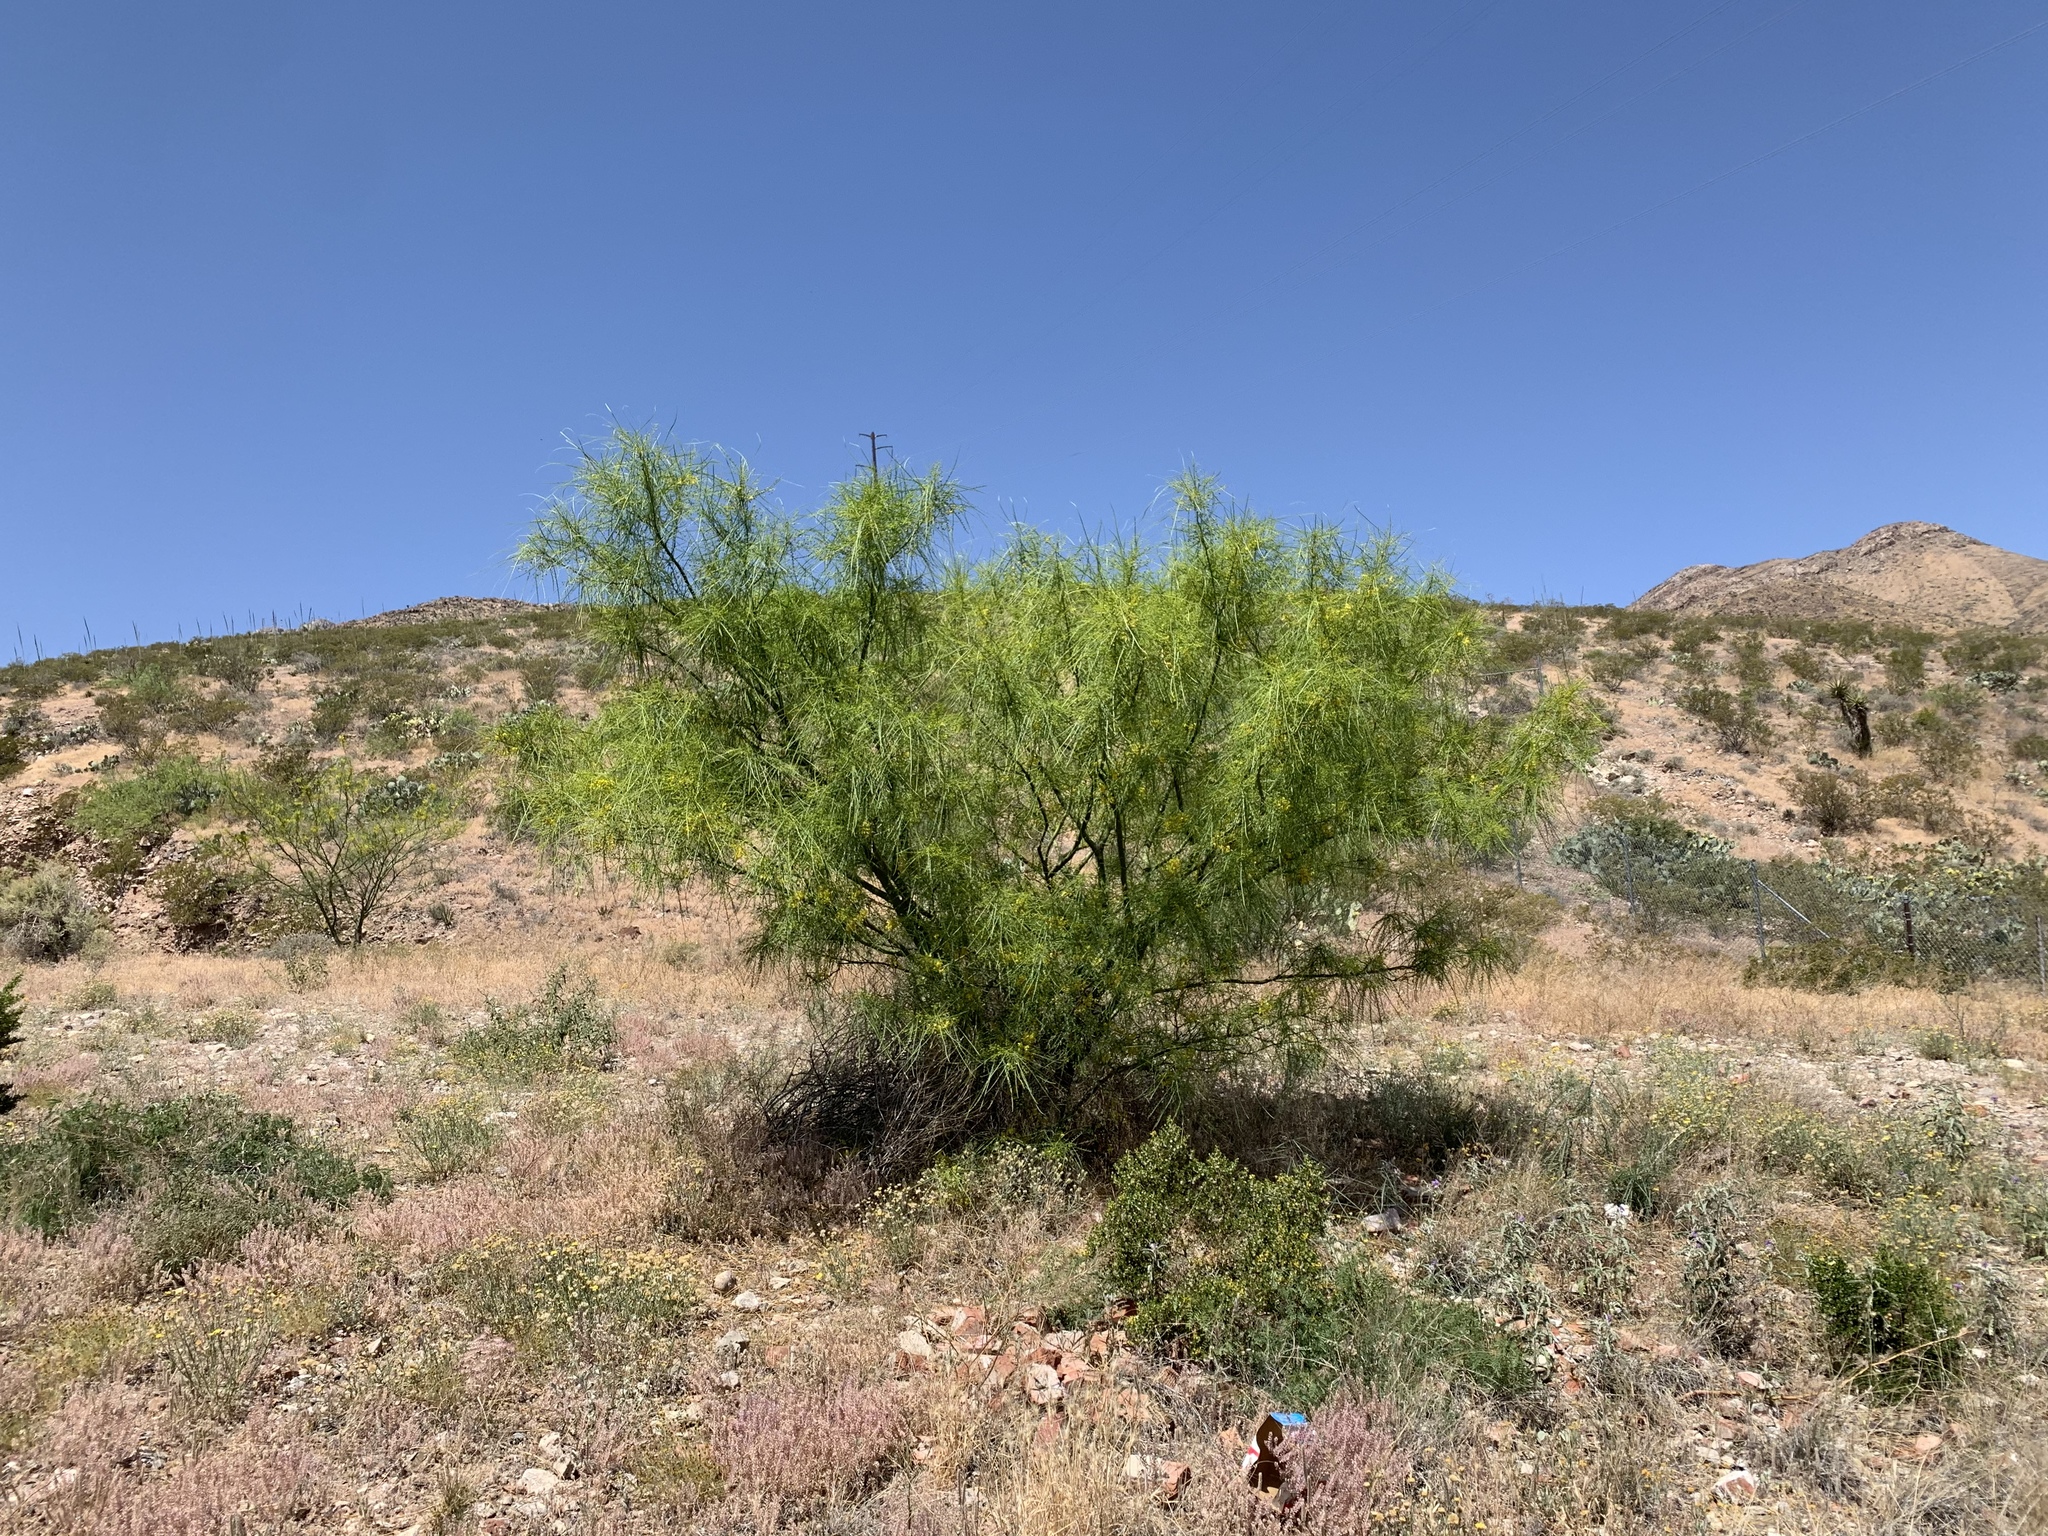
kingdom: Plantae
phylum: Tracheophyta
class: Magnoliopsida
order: Fabales
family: Fabaceae
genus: Parkinsonia
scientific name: Parkinsonia aculeata
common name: Jerusalem thorn
